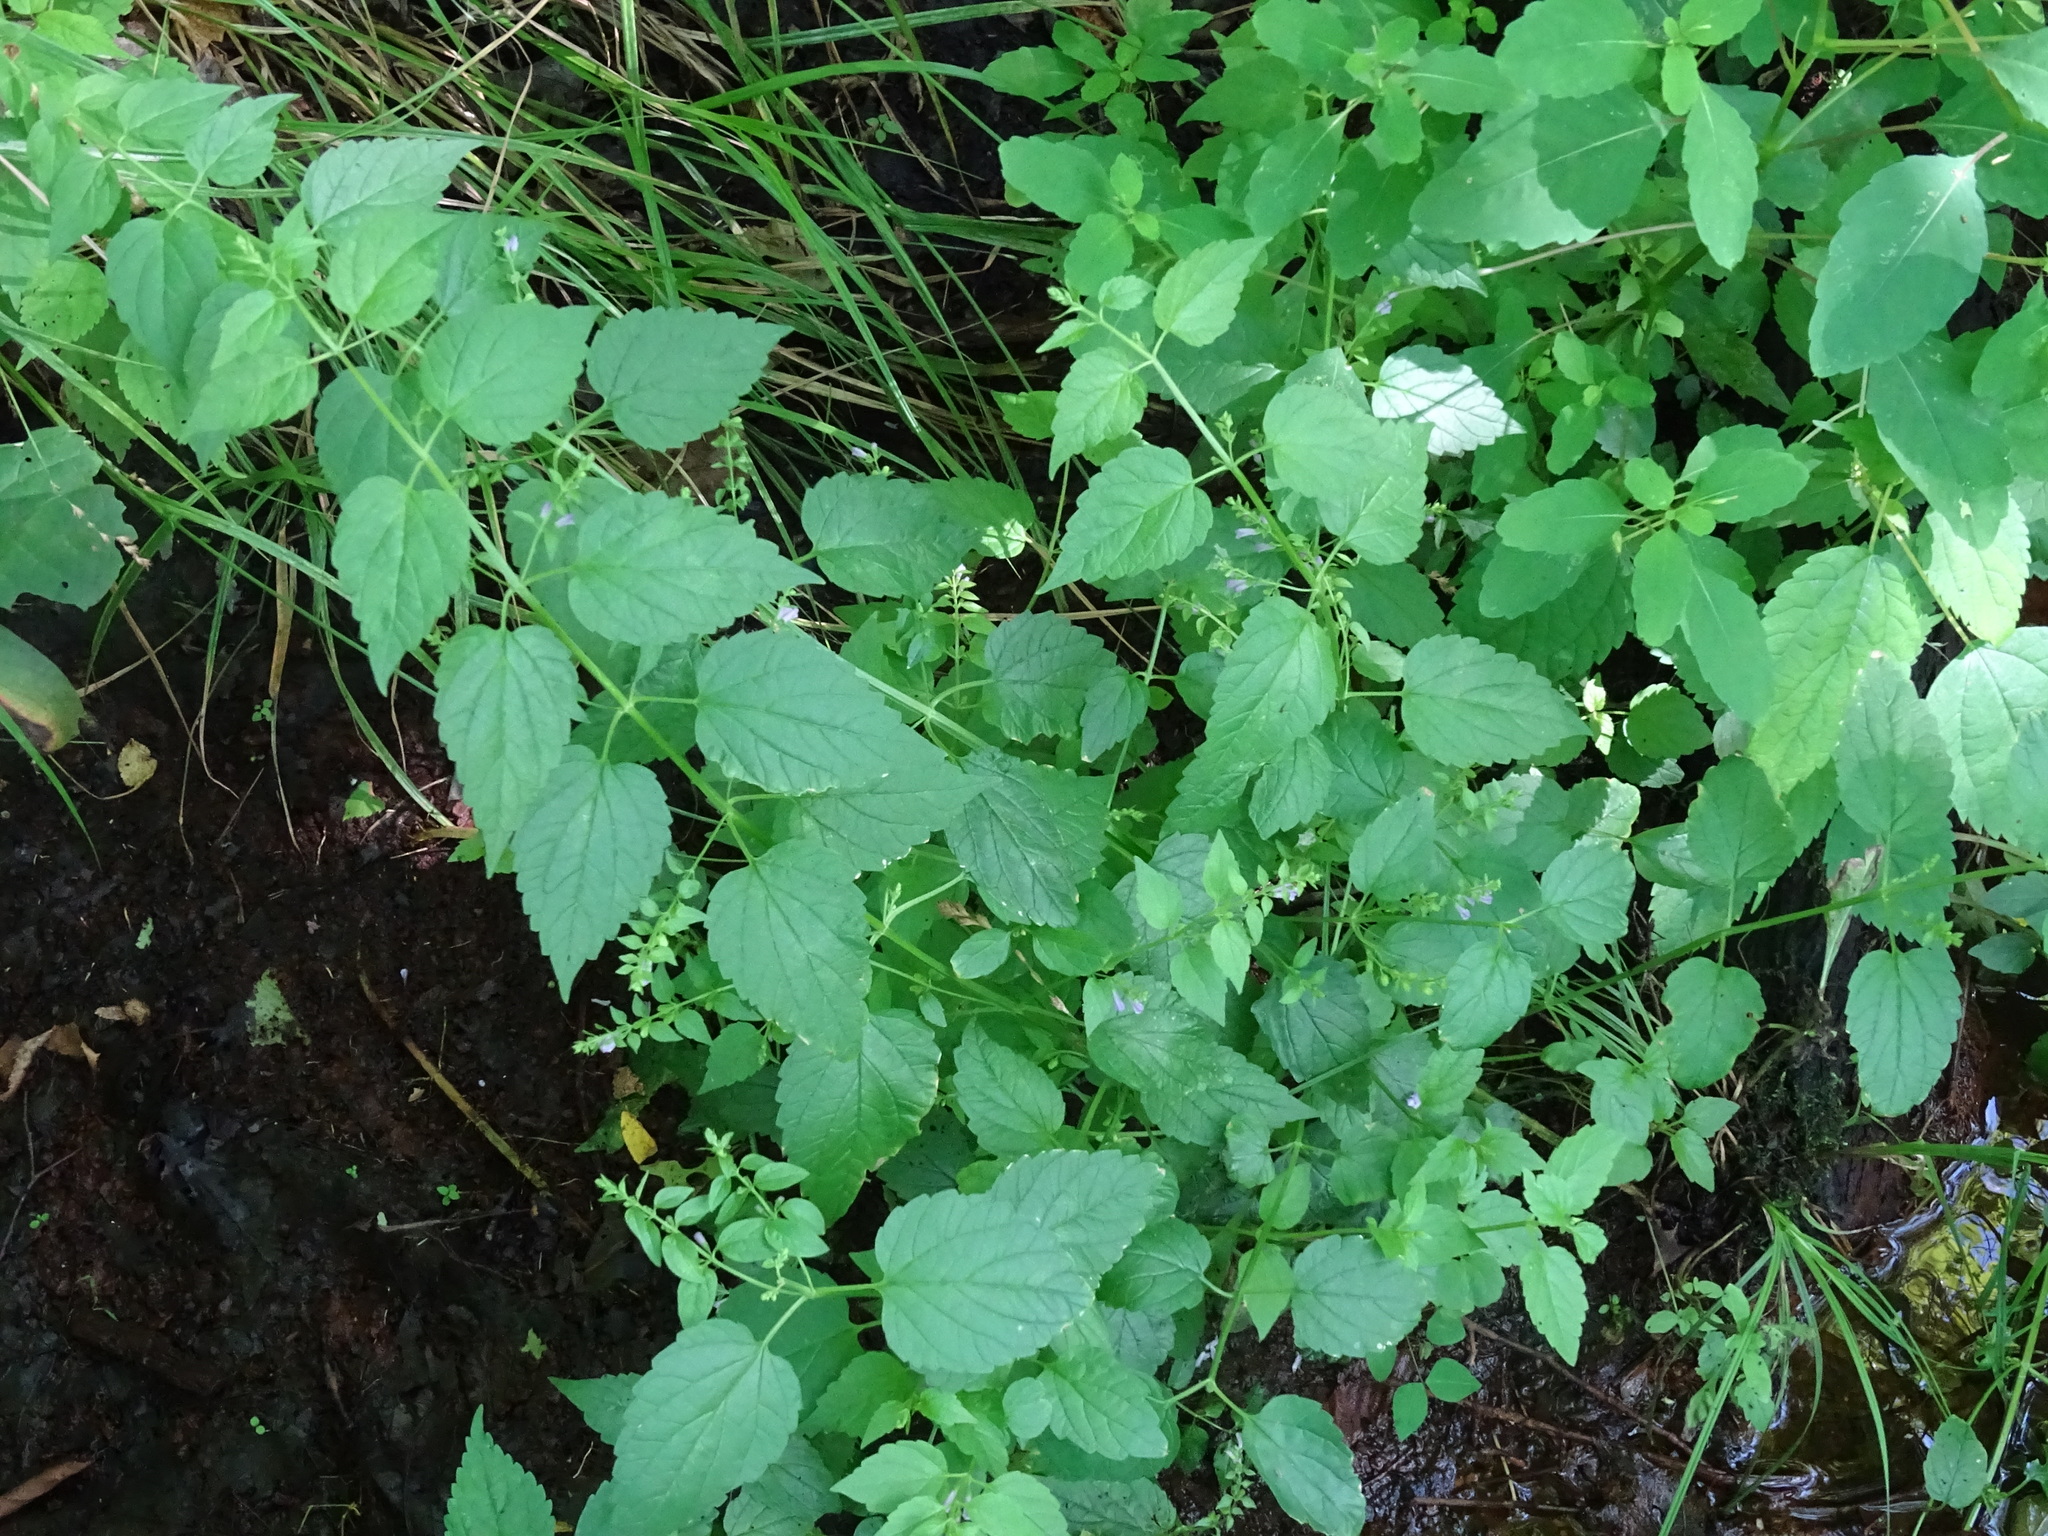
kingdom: Plantae
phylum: Tracheophyta
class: Magnoliopsida
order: Lamiales
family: Lamiaceae
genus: Scutellaria
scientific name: Scutellaria lateriflora
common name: Blue skullcap
